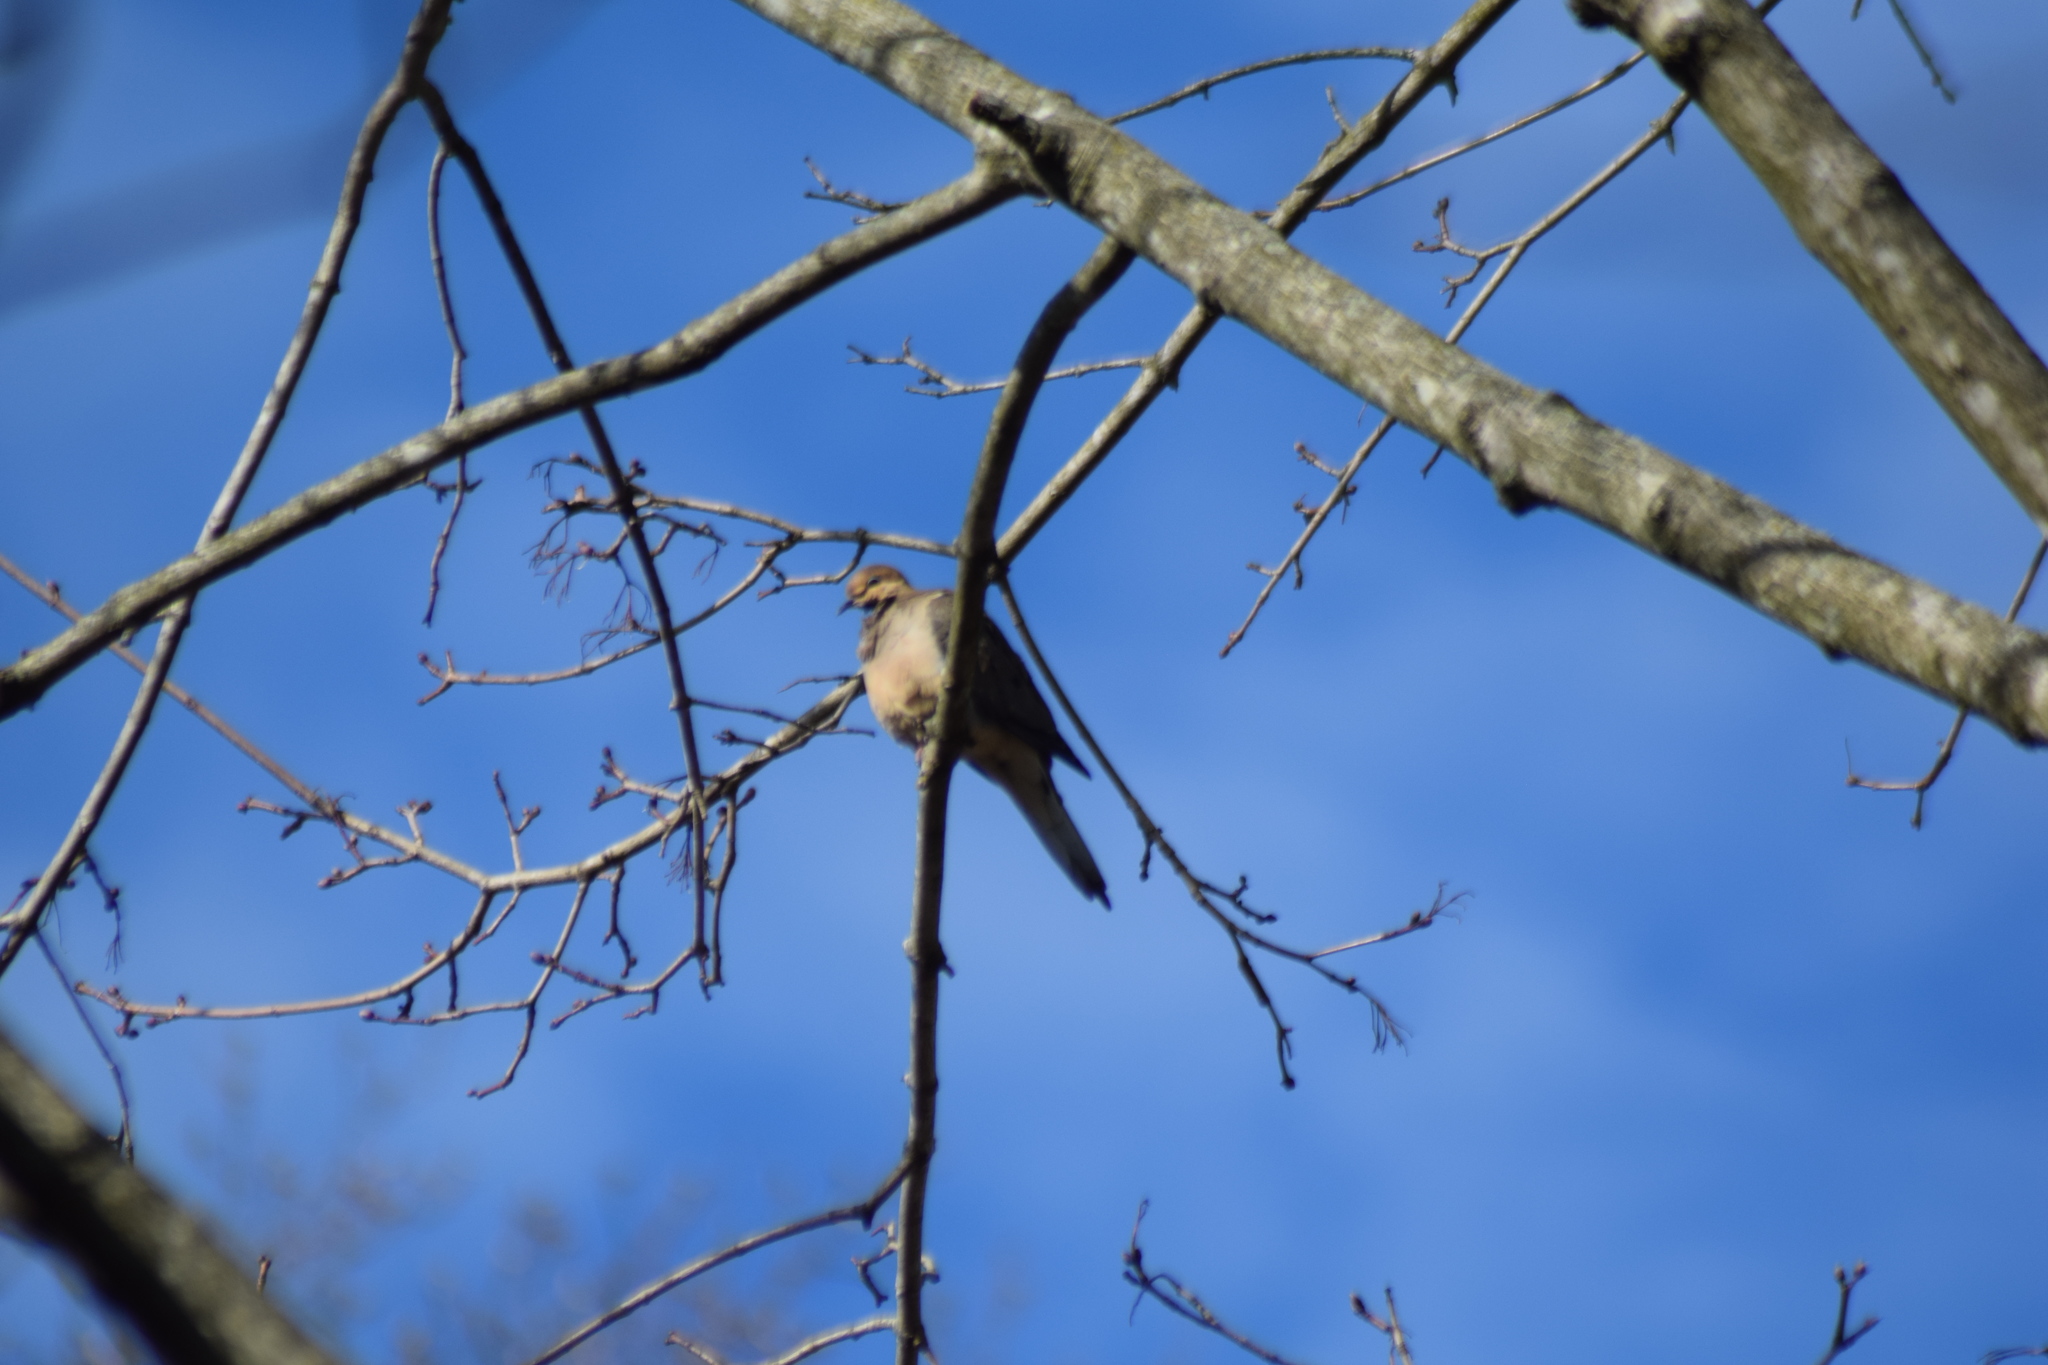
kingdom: Animalia
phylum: Chordata
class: Aves
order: Columbiformes
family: Columbidae
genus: Zenaida
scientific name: Zenaida macroura
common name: Mourning dove
